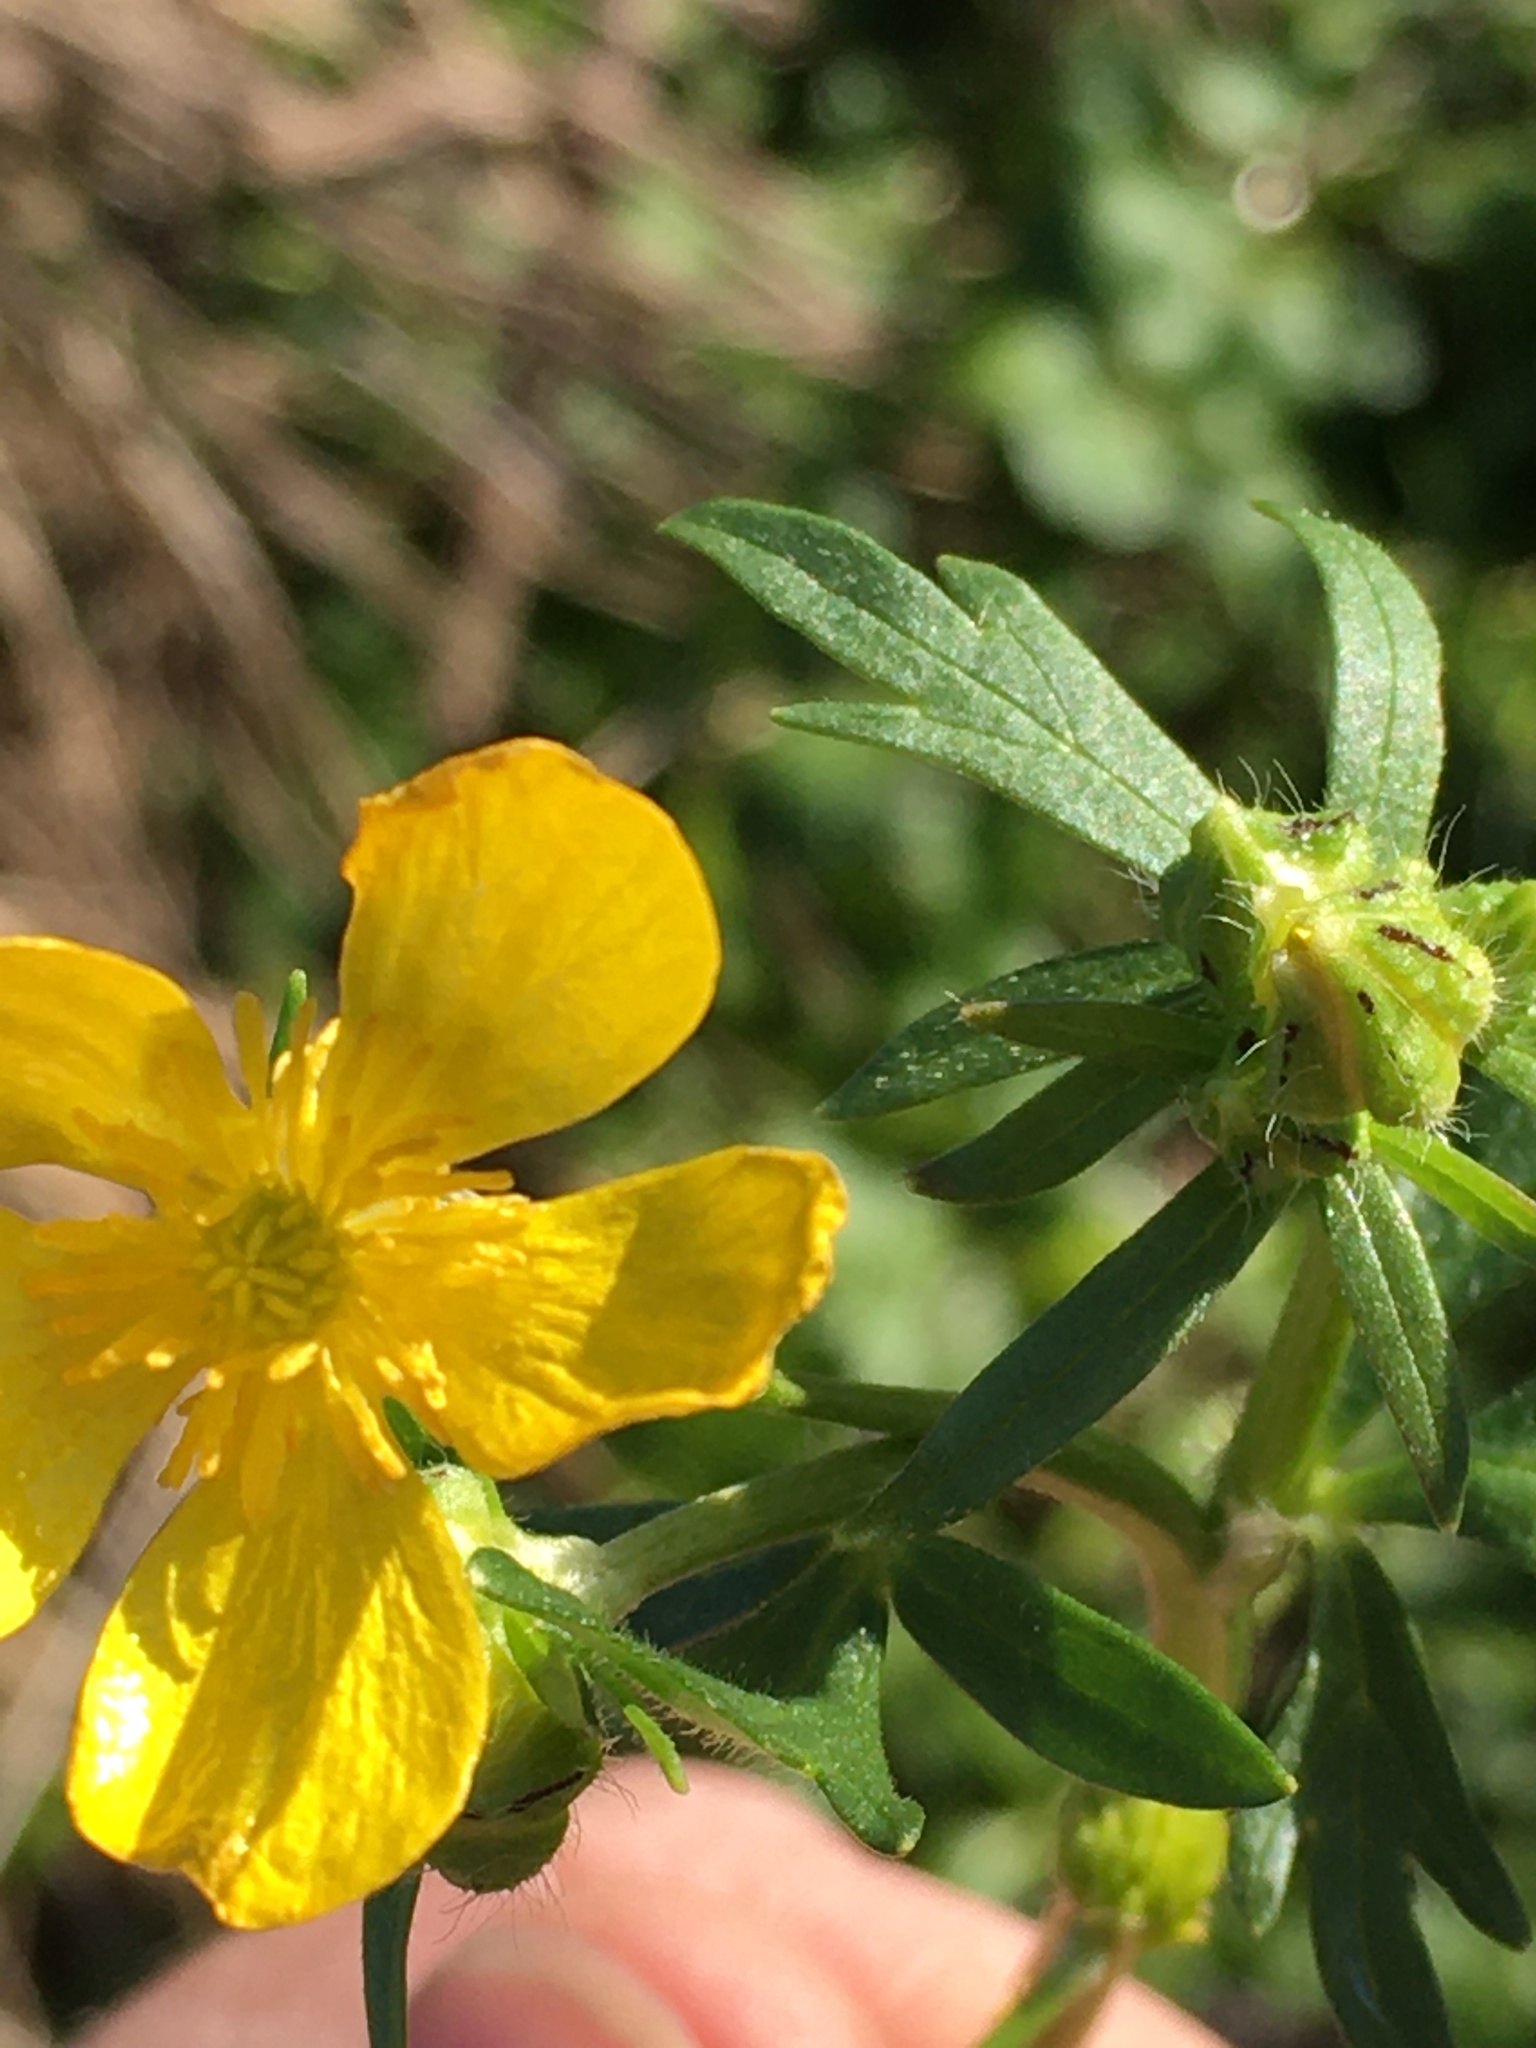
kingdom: Plantae
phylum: Tracheophyta
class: Magnoliopsida
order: Ranunculales
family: Ranunculaceae
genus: Ranunculus
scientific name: Ranunculus bulbosus
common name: Bulbous buttercup
